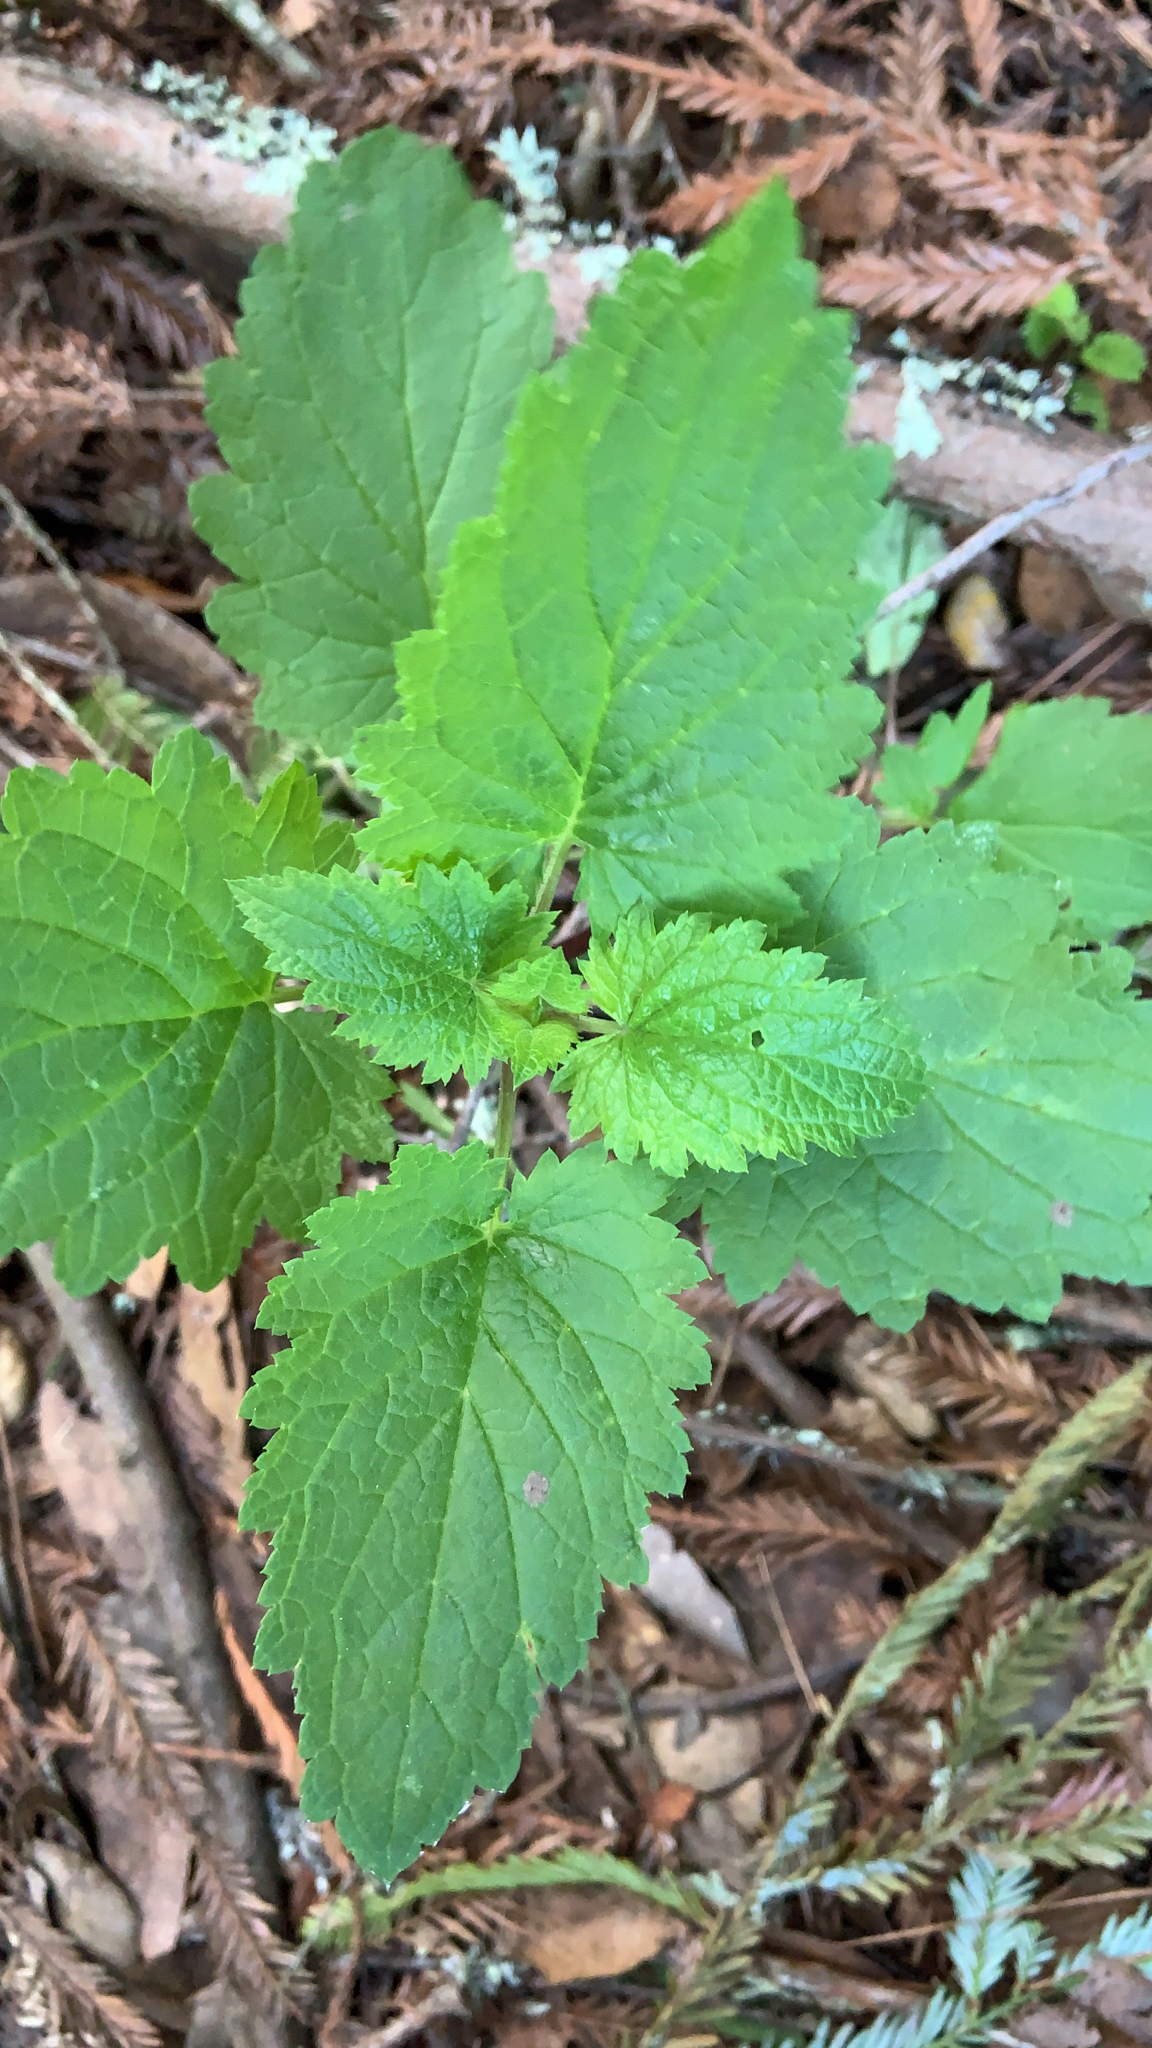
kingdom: Plantae
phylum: Tracheophyta
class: Magnoliopsida
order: Lamiales
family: Scrophulariaceae
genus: Scrophularia
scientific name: Scrophularia californica
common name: California figwort
